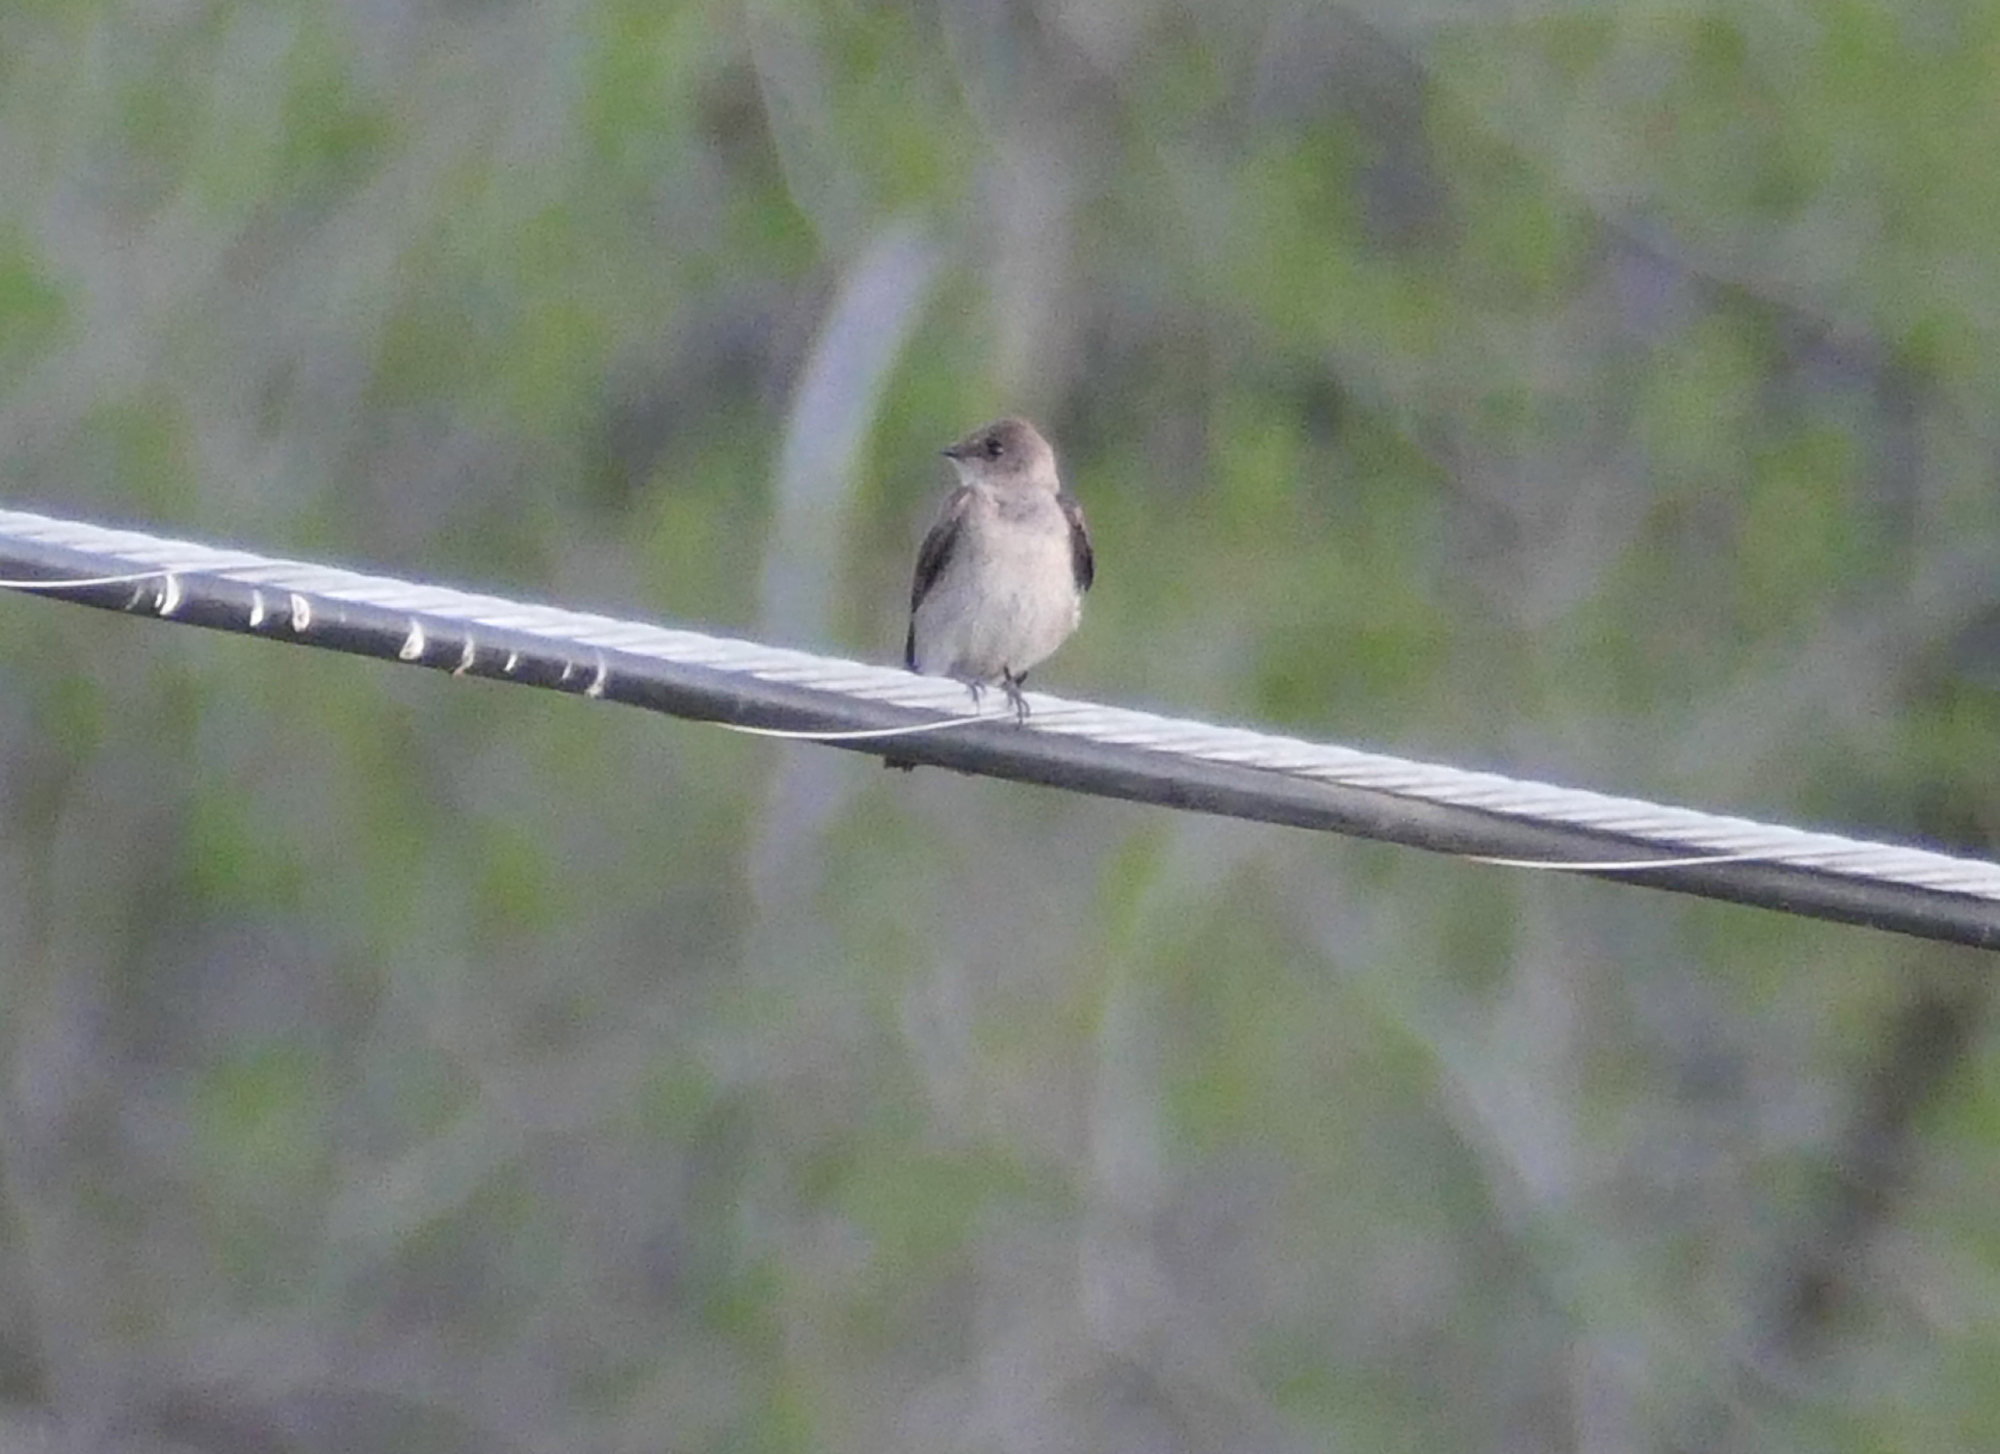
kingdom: Animalia
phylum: Chordata
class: Aves
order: Passeriformes
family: Hirundinidae
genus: Stelgidopteryx
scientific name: Stelgidopteryx serripennis
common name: Northern rough-winged swallow
